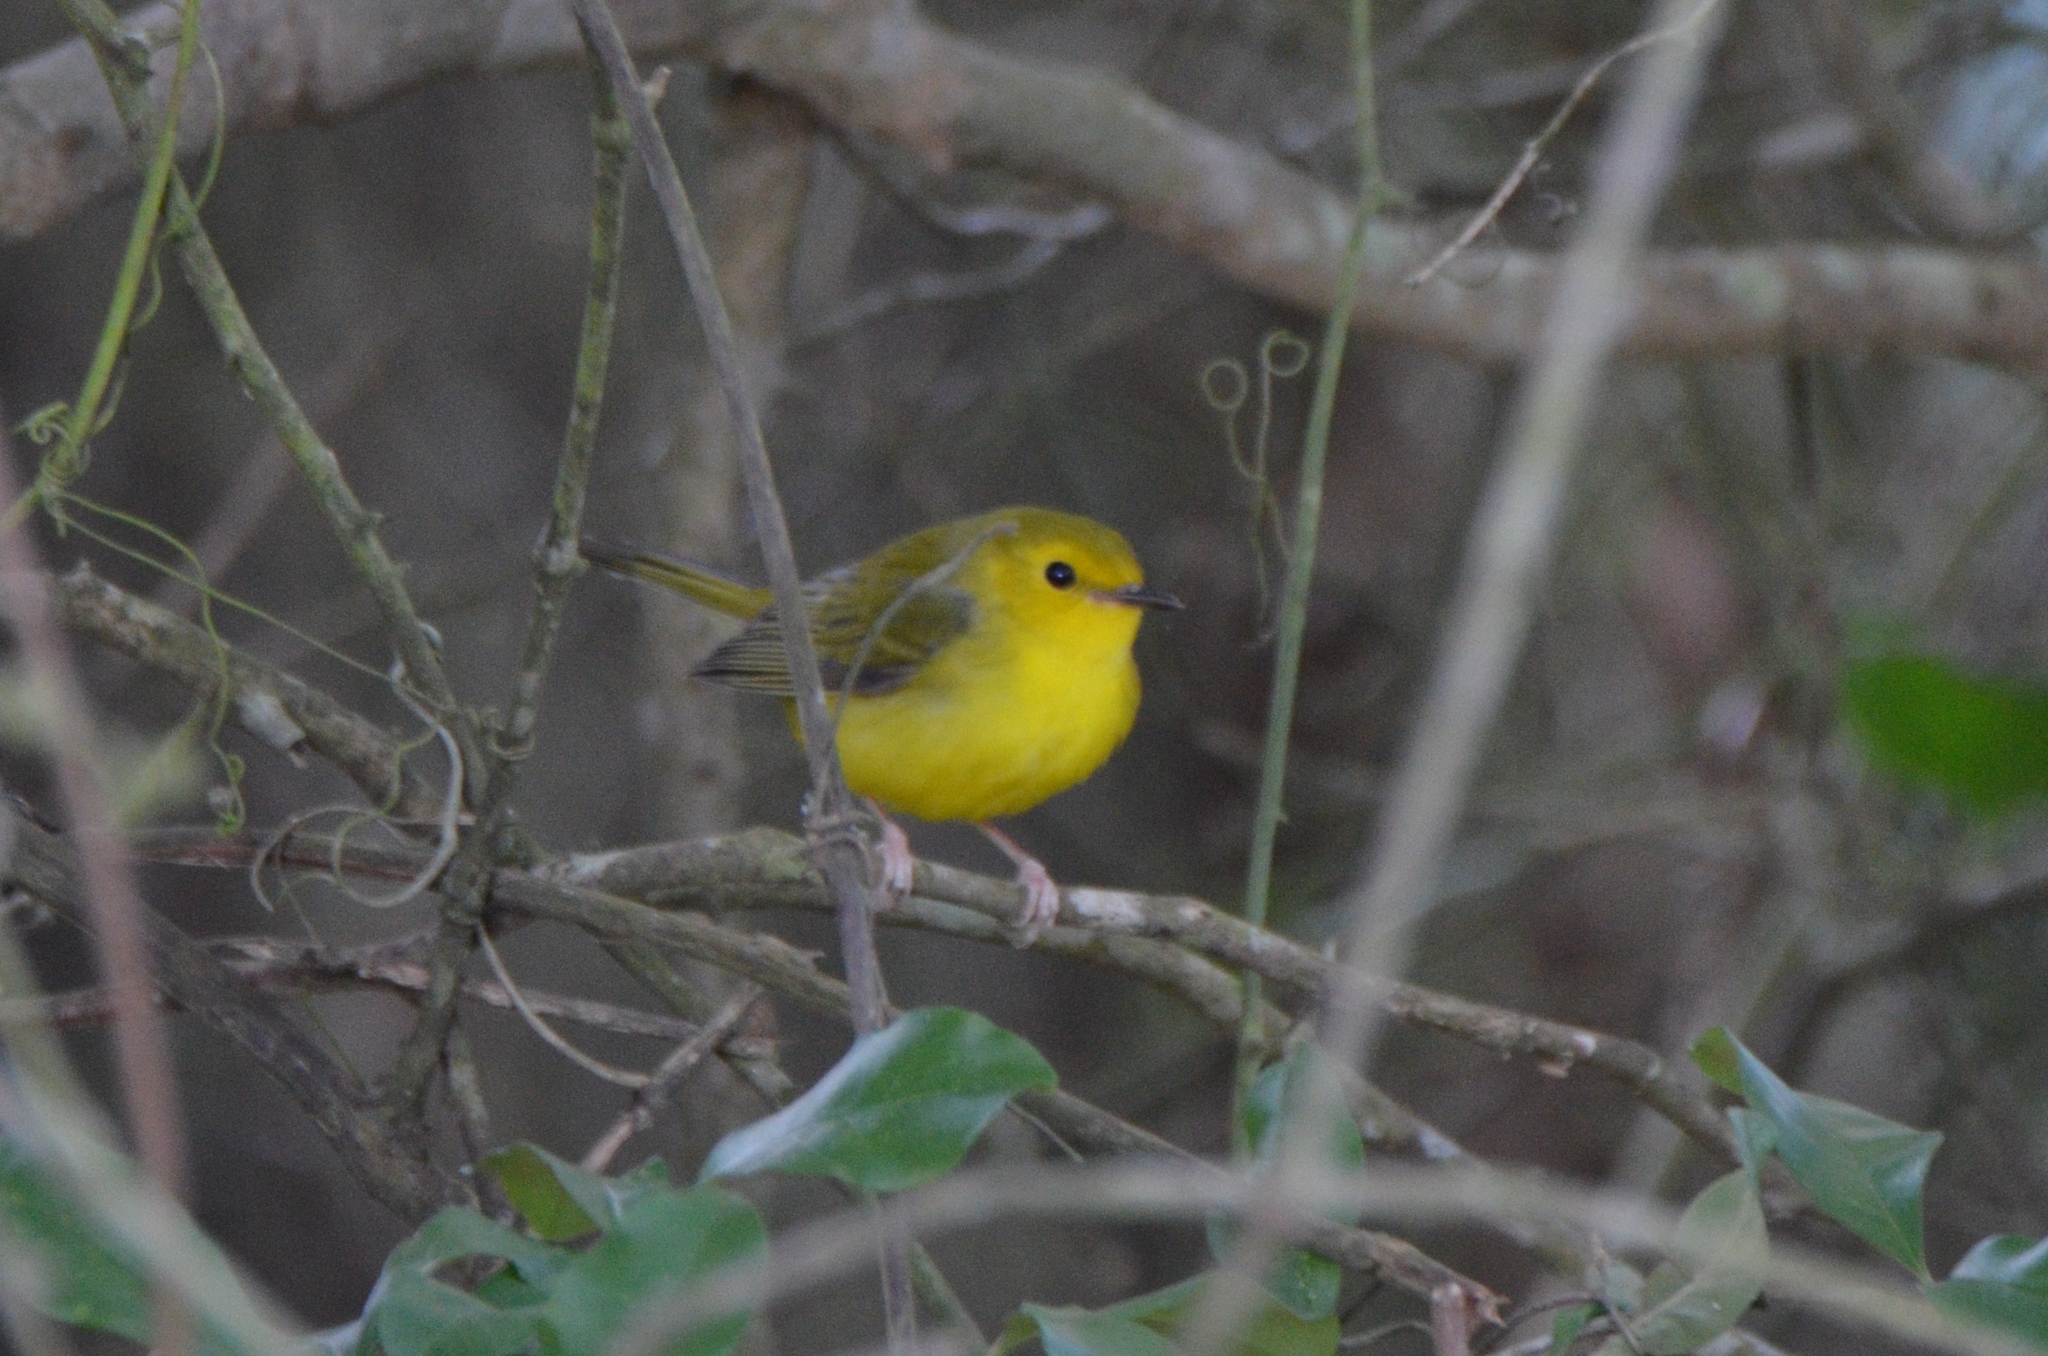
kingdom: Animalia
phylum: Chordata
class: Aves
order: Passeriformes
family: Parulidae
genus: Setophaga
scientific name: Setophaga citrina
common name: Hooded warbler
